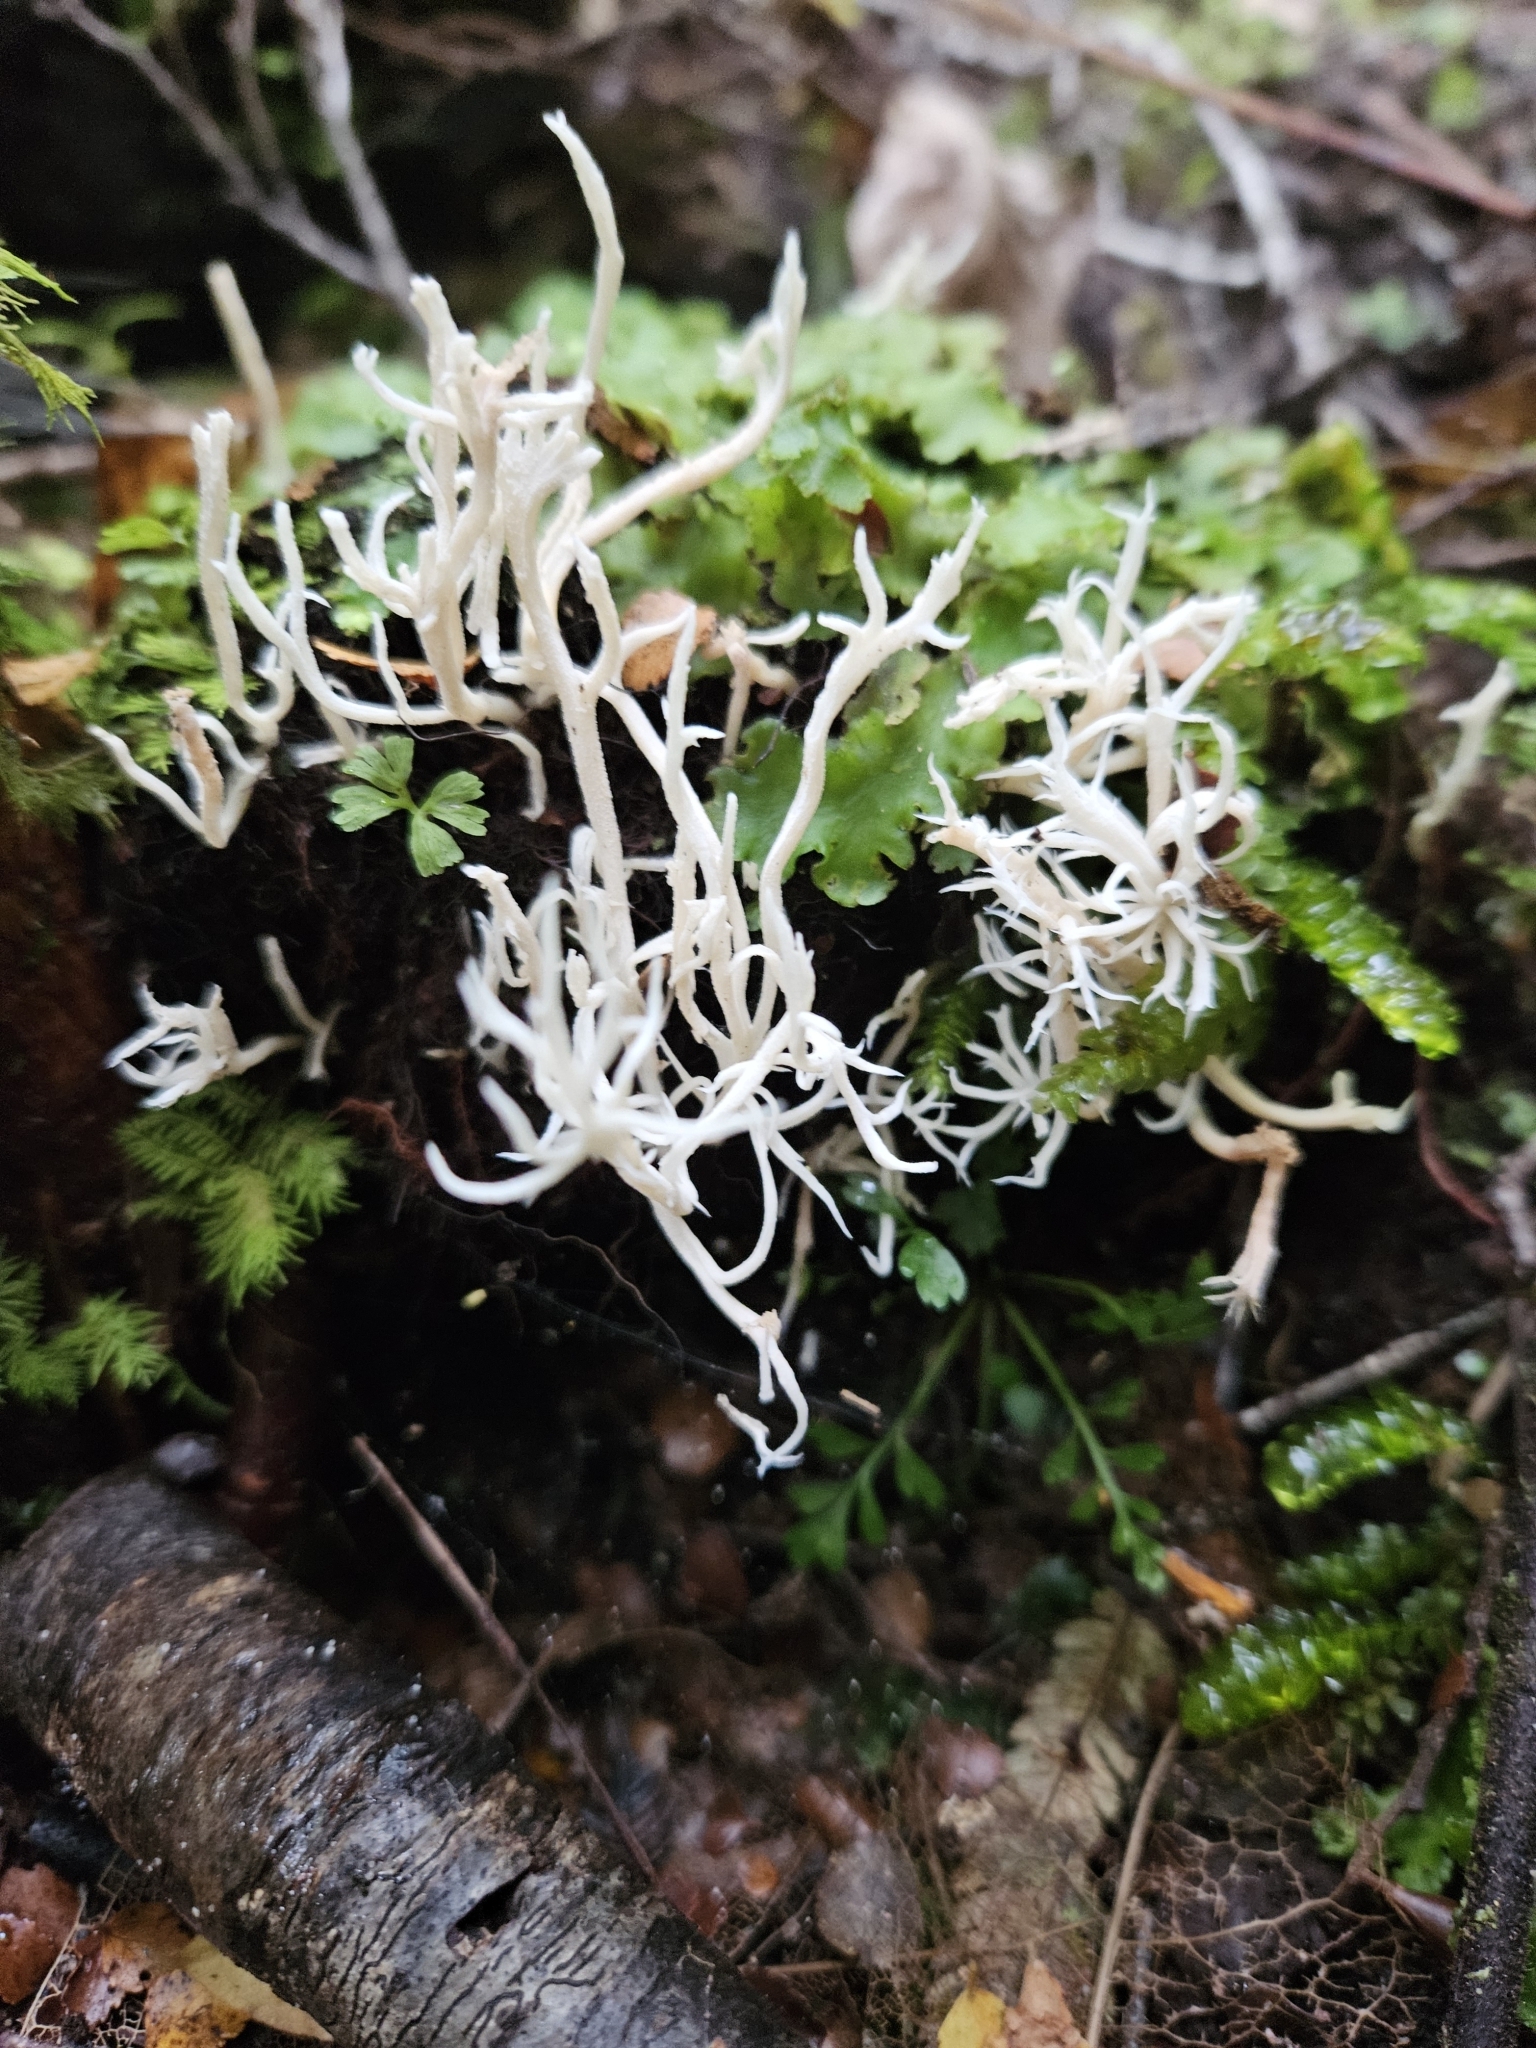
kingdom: Fungi
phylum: Basidiomycota
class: Agaricomycetes
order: Cantharellales
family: Hydnaceae
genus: Clavulina
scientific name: Clavulina
